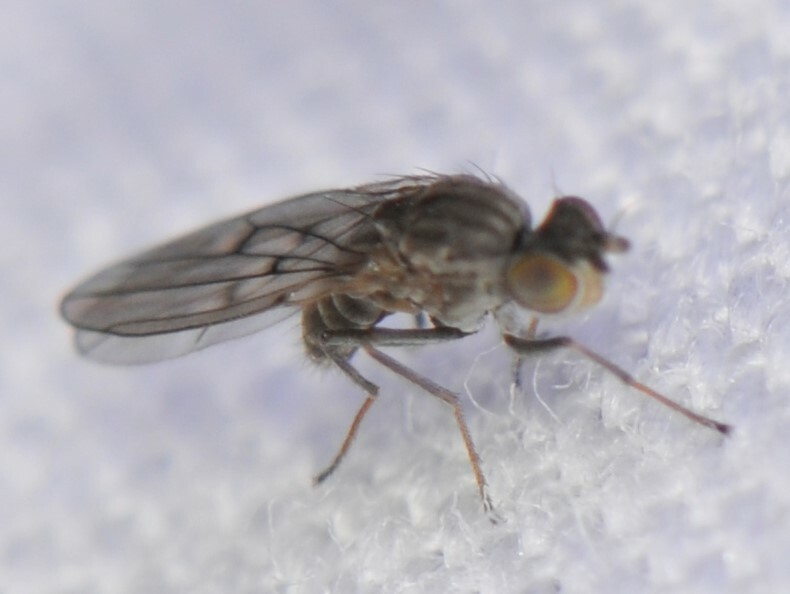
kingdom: Animalia
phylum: Arthropoda
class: Insecta
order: Diptera
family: Ephydridae
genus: Philygria
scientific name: Philygria debilis
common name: Brine fly
